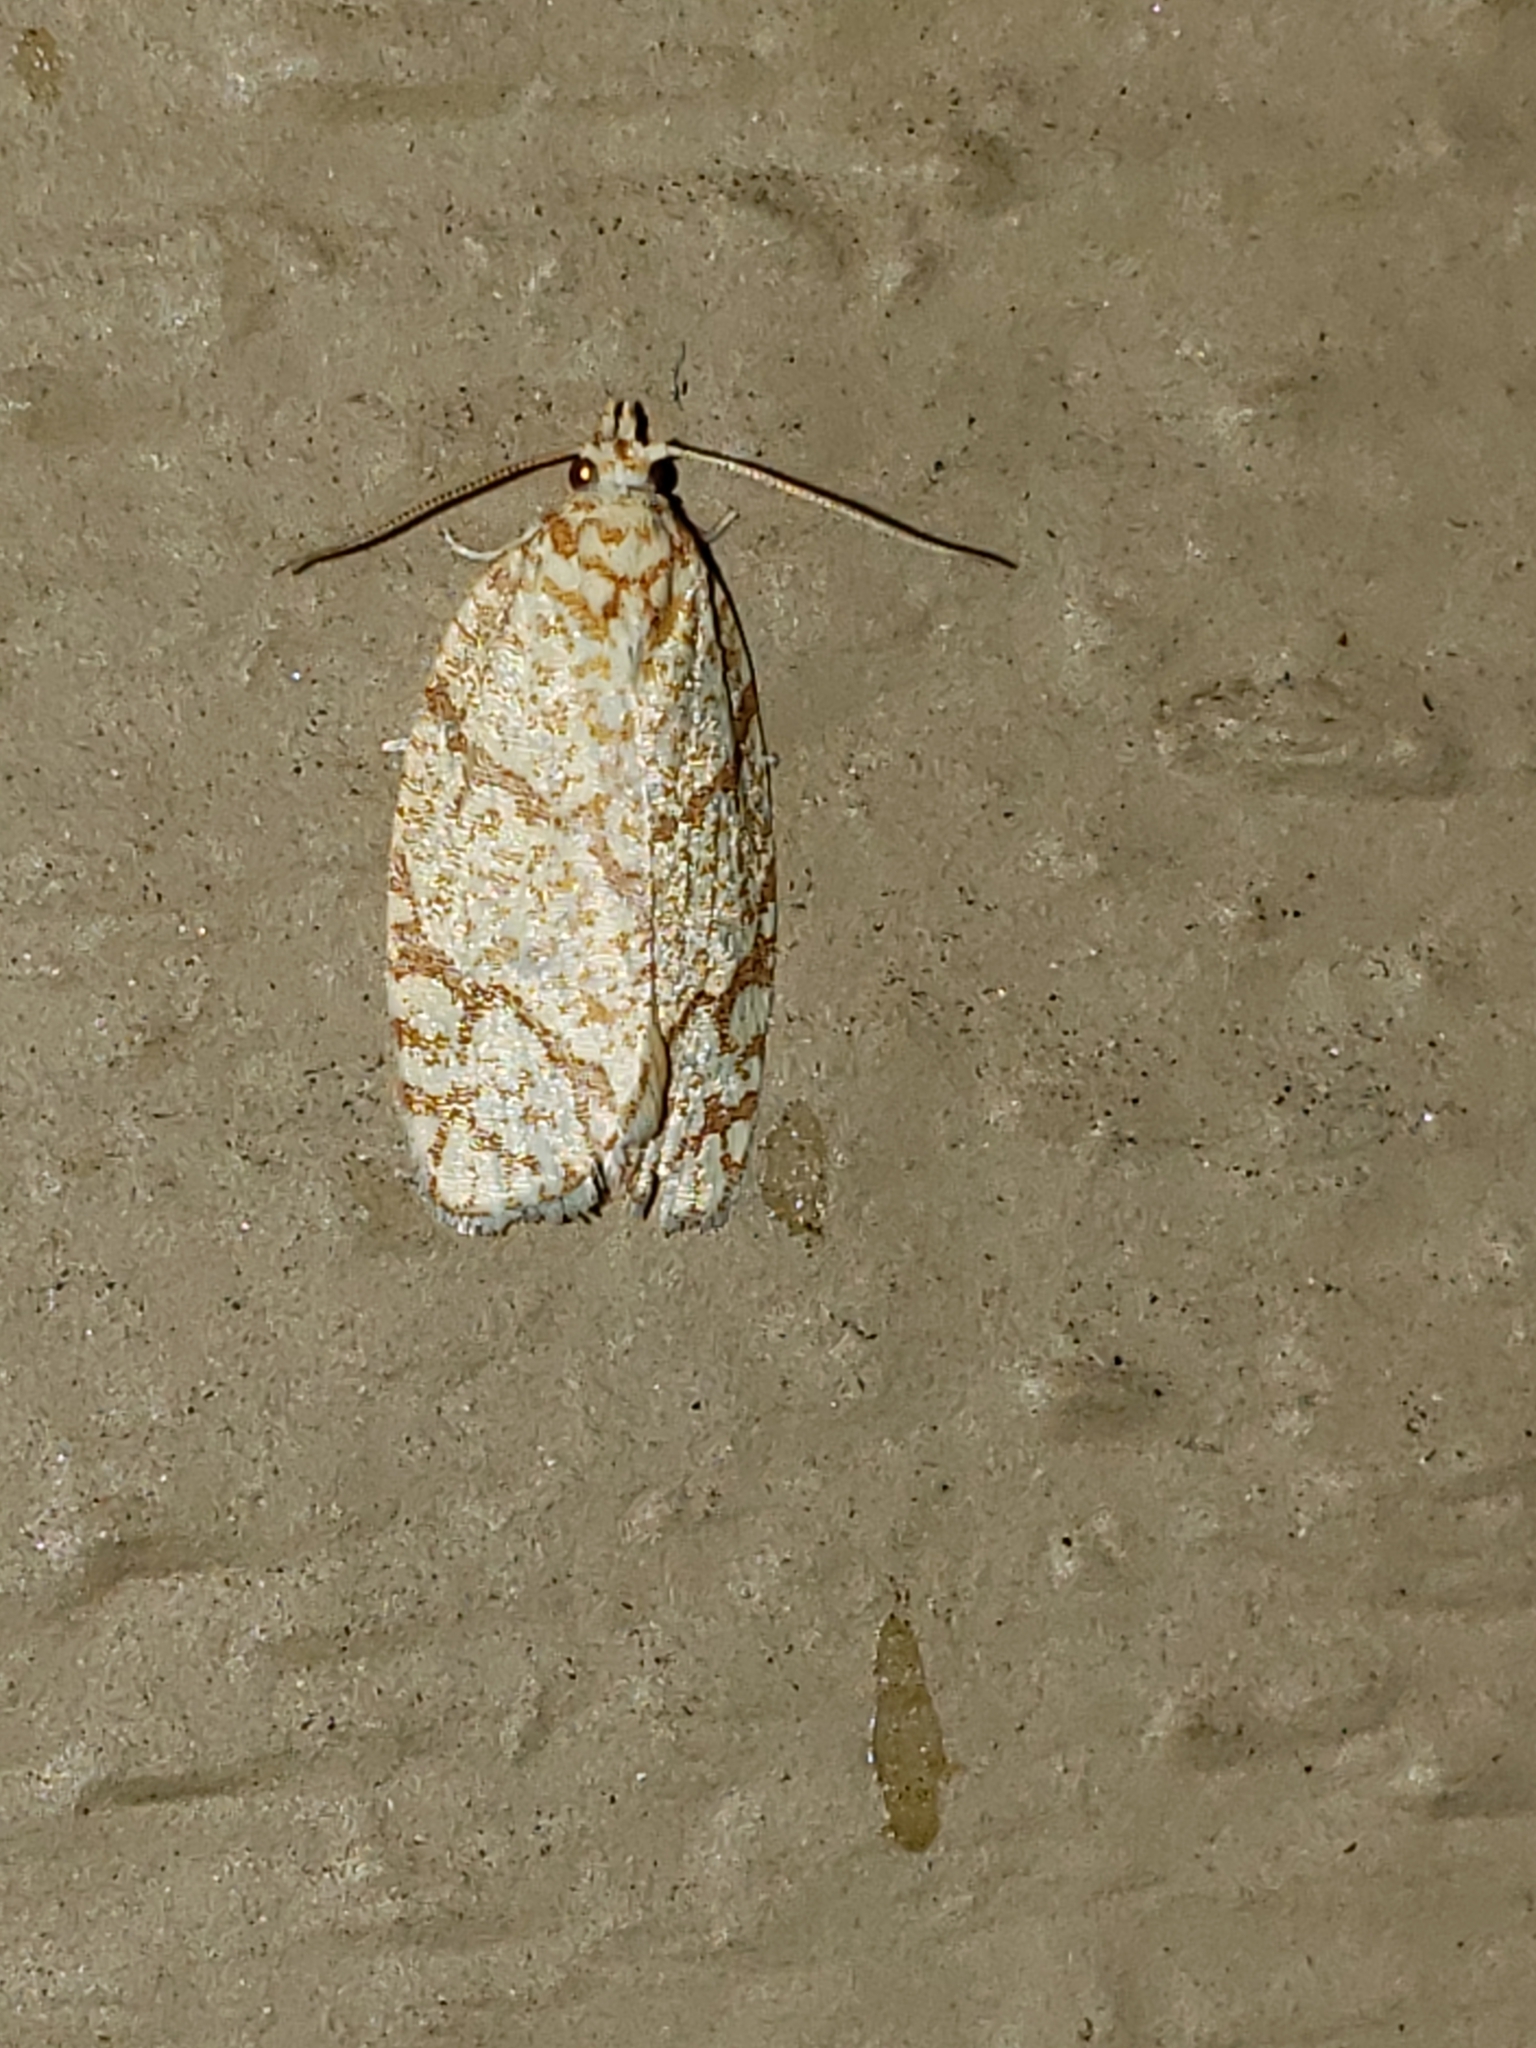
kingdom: Animalia
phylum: Arthropoda
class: Insecta
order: Lepidoptera
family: Tortricidae
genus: Argyrotaenia
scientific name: Argyrotaenia quercifoliana
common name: Yellow-winged oak leafroller moth
